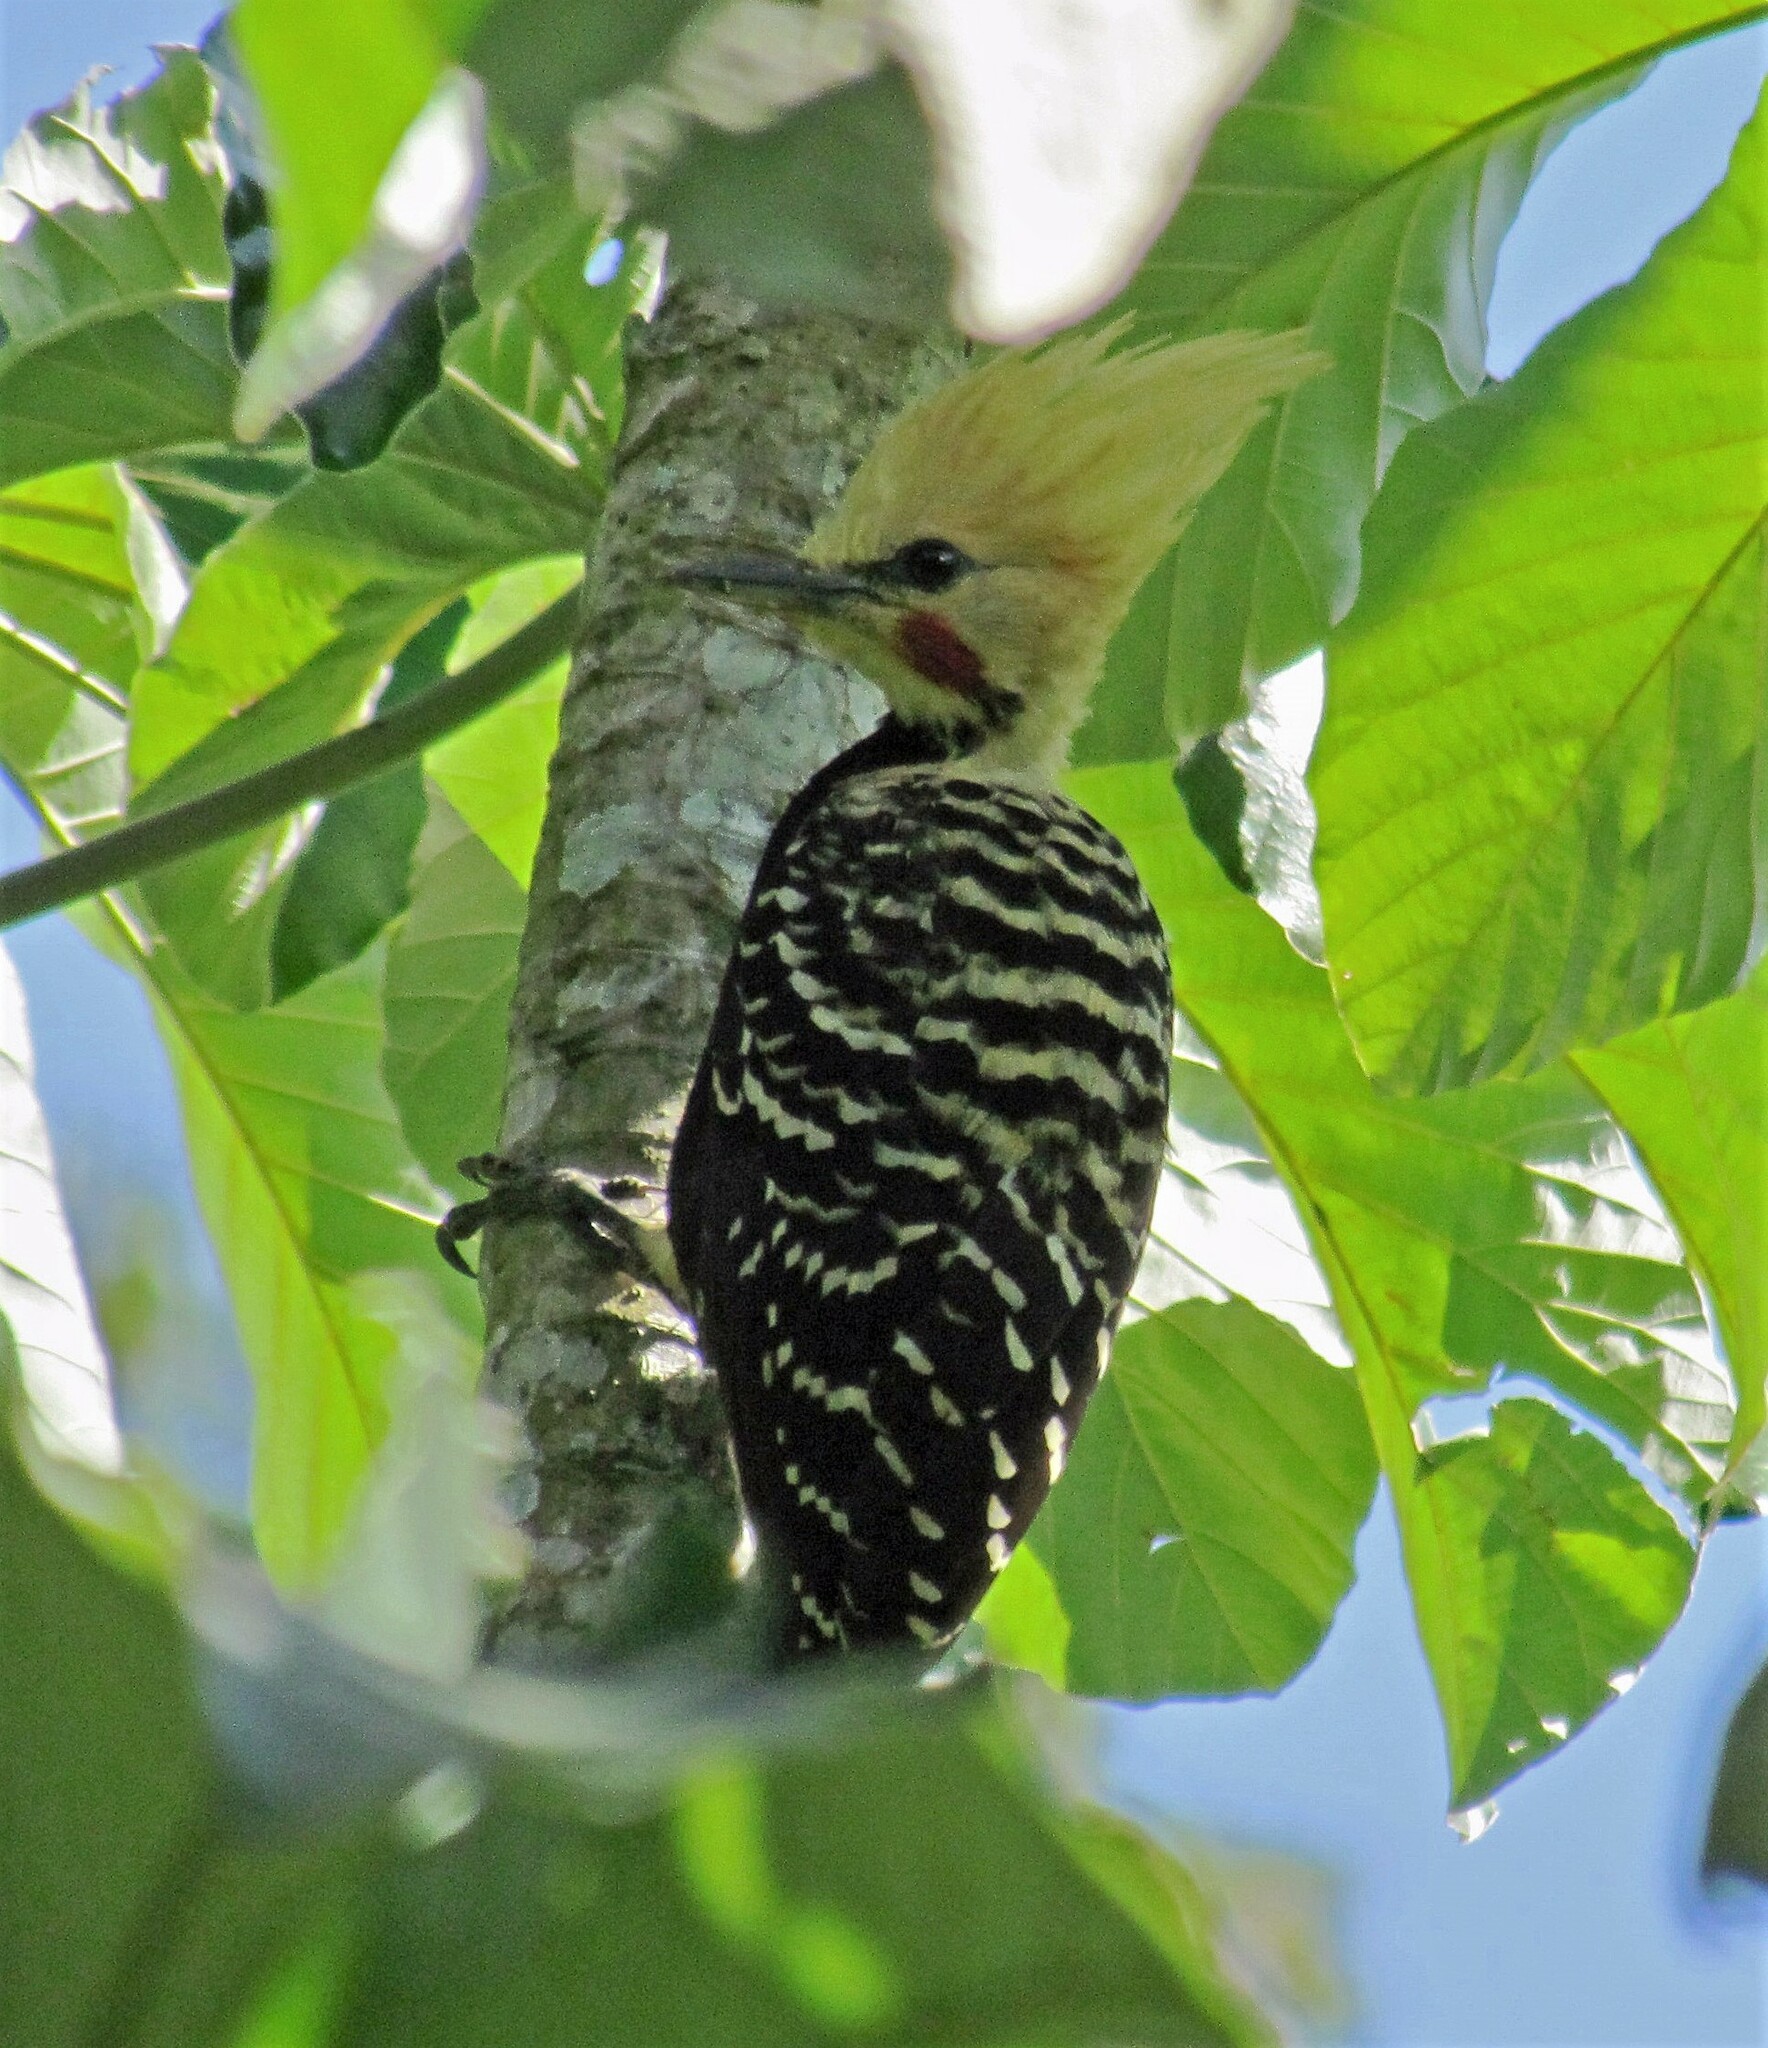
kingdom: Animalia
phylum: Chordata
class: Aves
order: Piciformes
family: Picidae
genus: Celeus
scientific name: Celeus flavescens
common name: Blond-crested woodpecker
